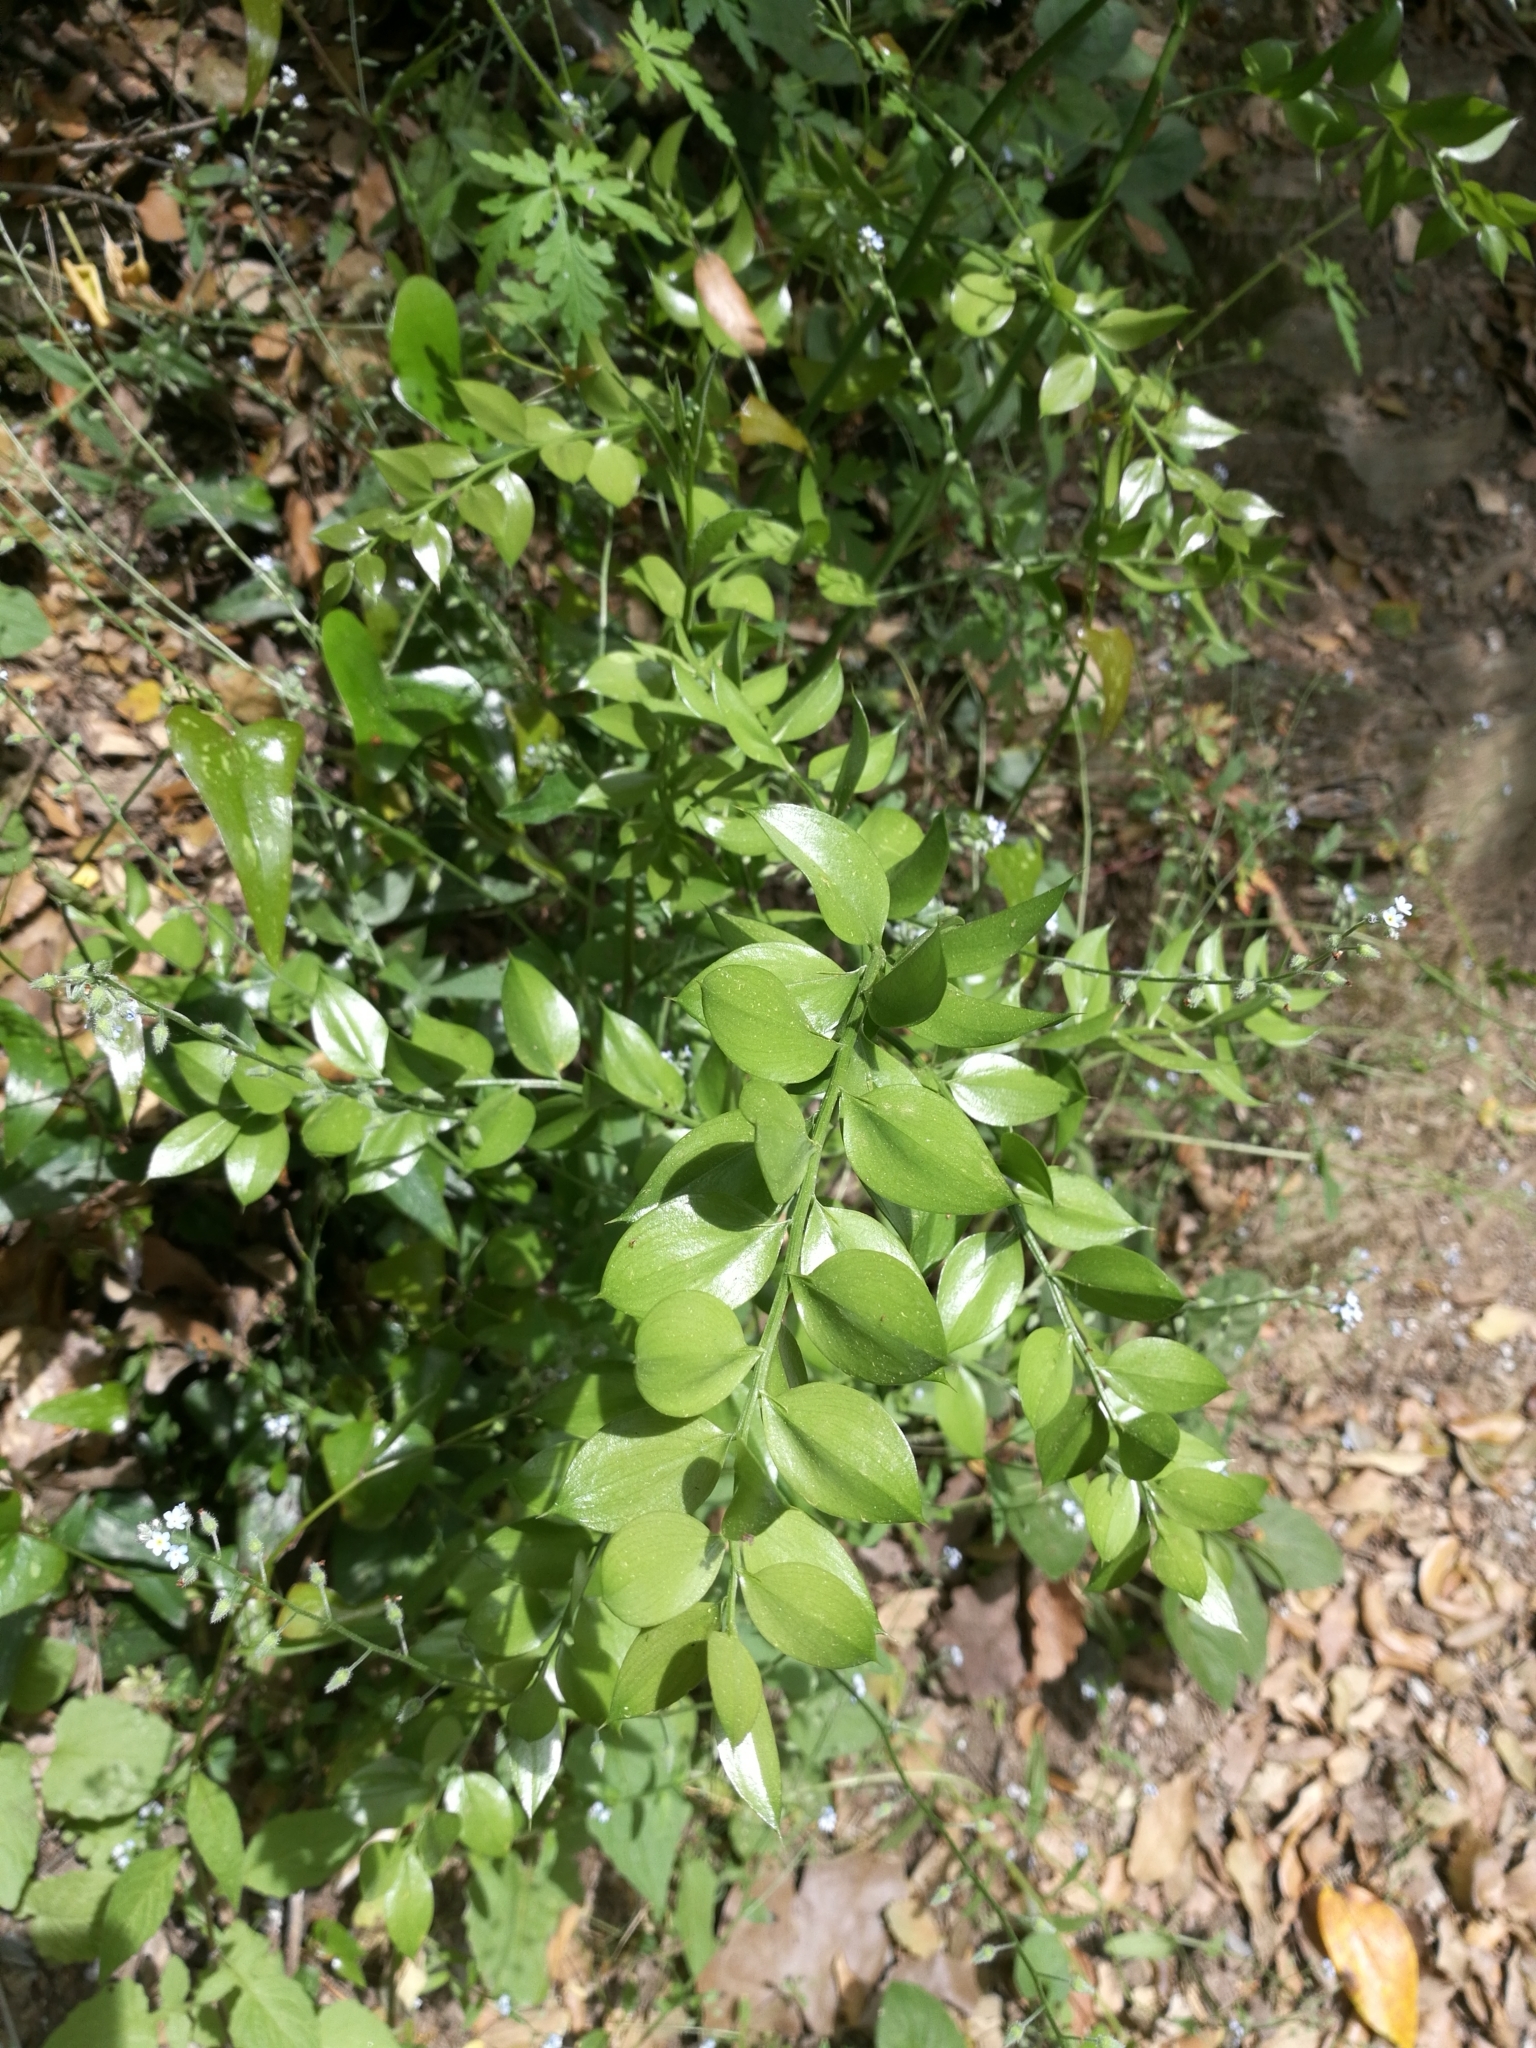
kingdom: Plantae
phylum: Tracheophyta
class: Liliopsida
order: Asparagales
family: Asparagaceae
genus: Ruscus
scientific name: Ruscus aculeatus
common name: Butcher's-broom
